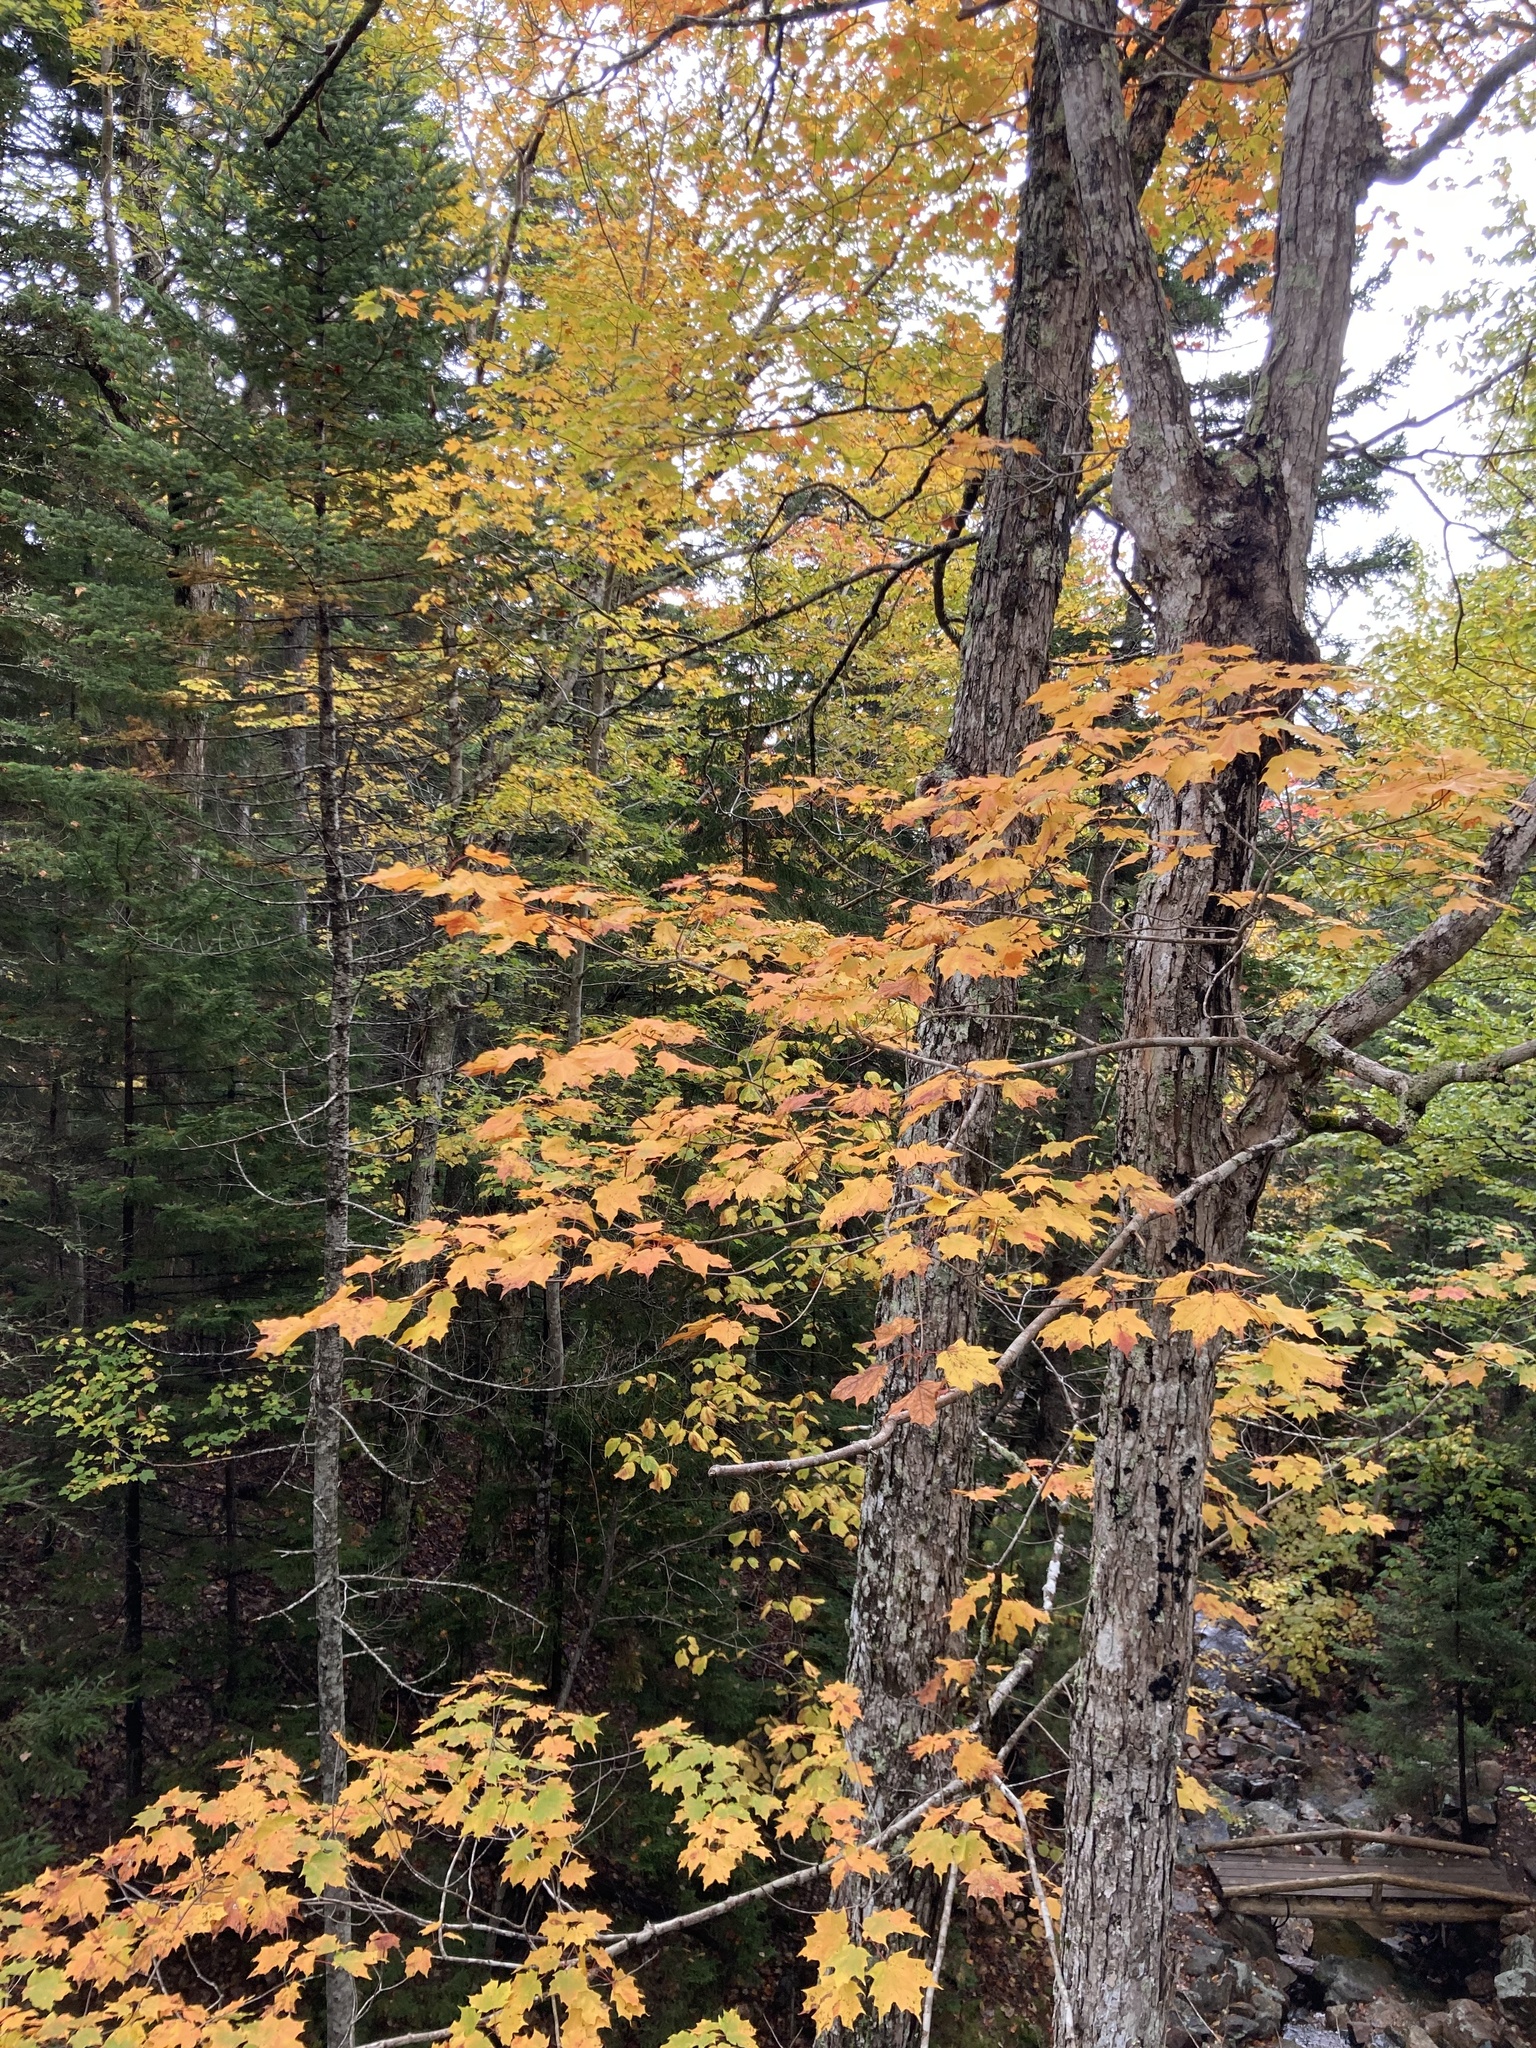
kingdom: Plantae
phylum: Tracheophyta
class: Magnoliopsida
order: Sapindales
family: Sapindaceae
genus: Acer
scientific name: Acer saccharum
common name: Sugar maple
